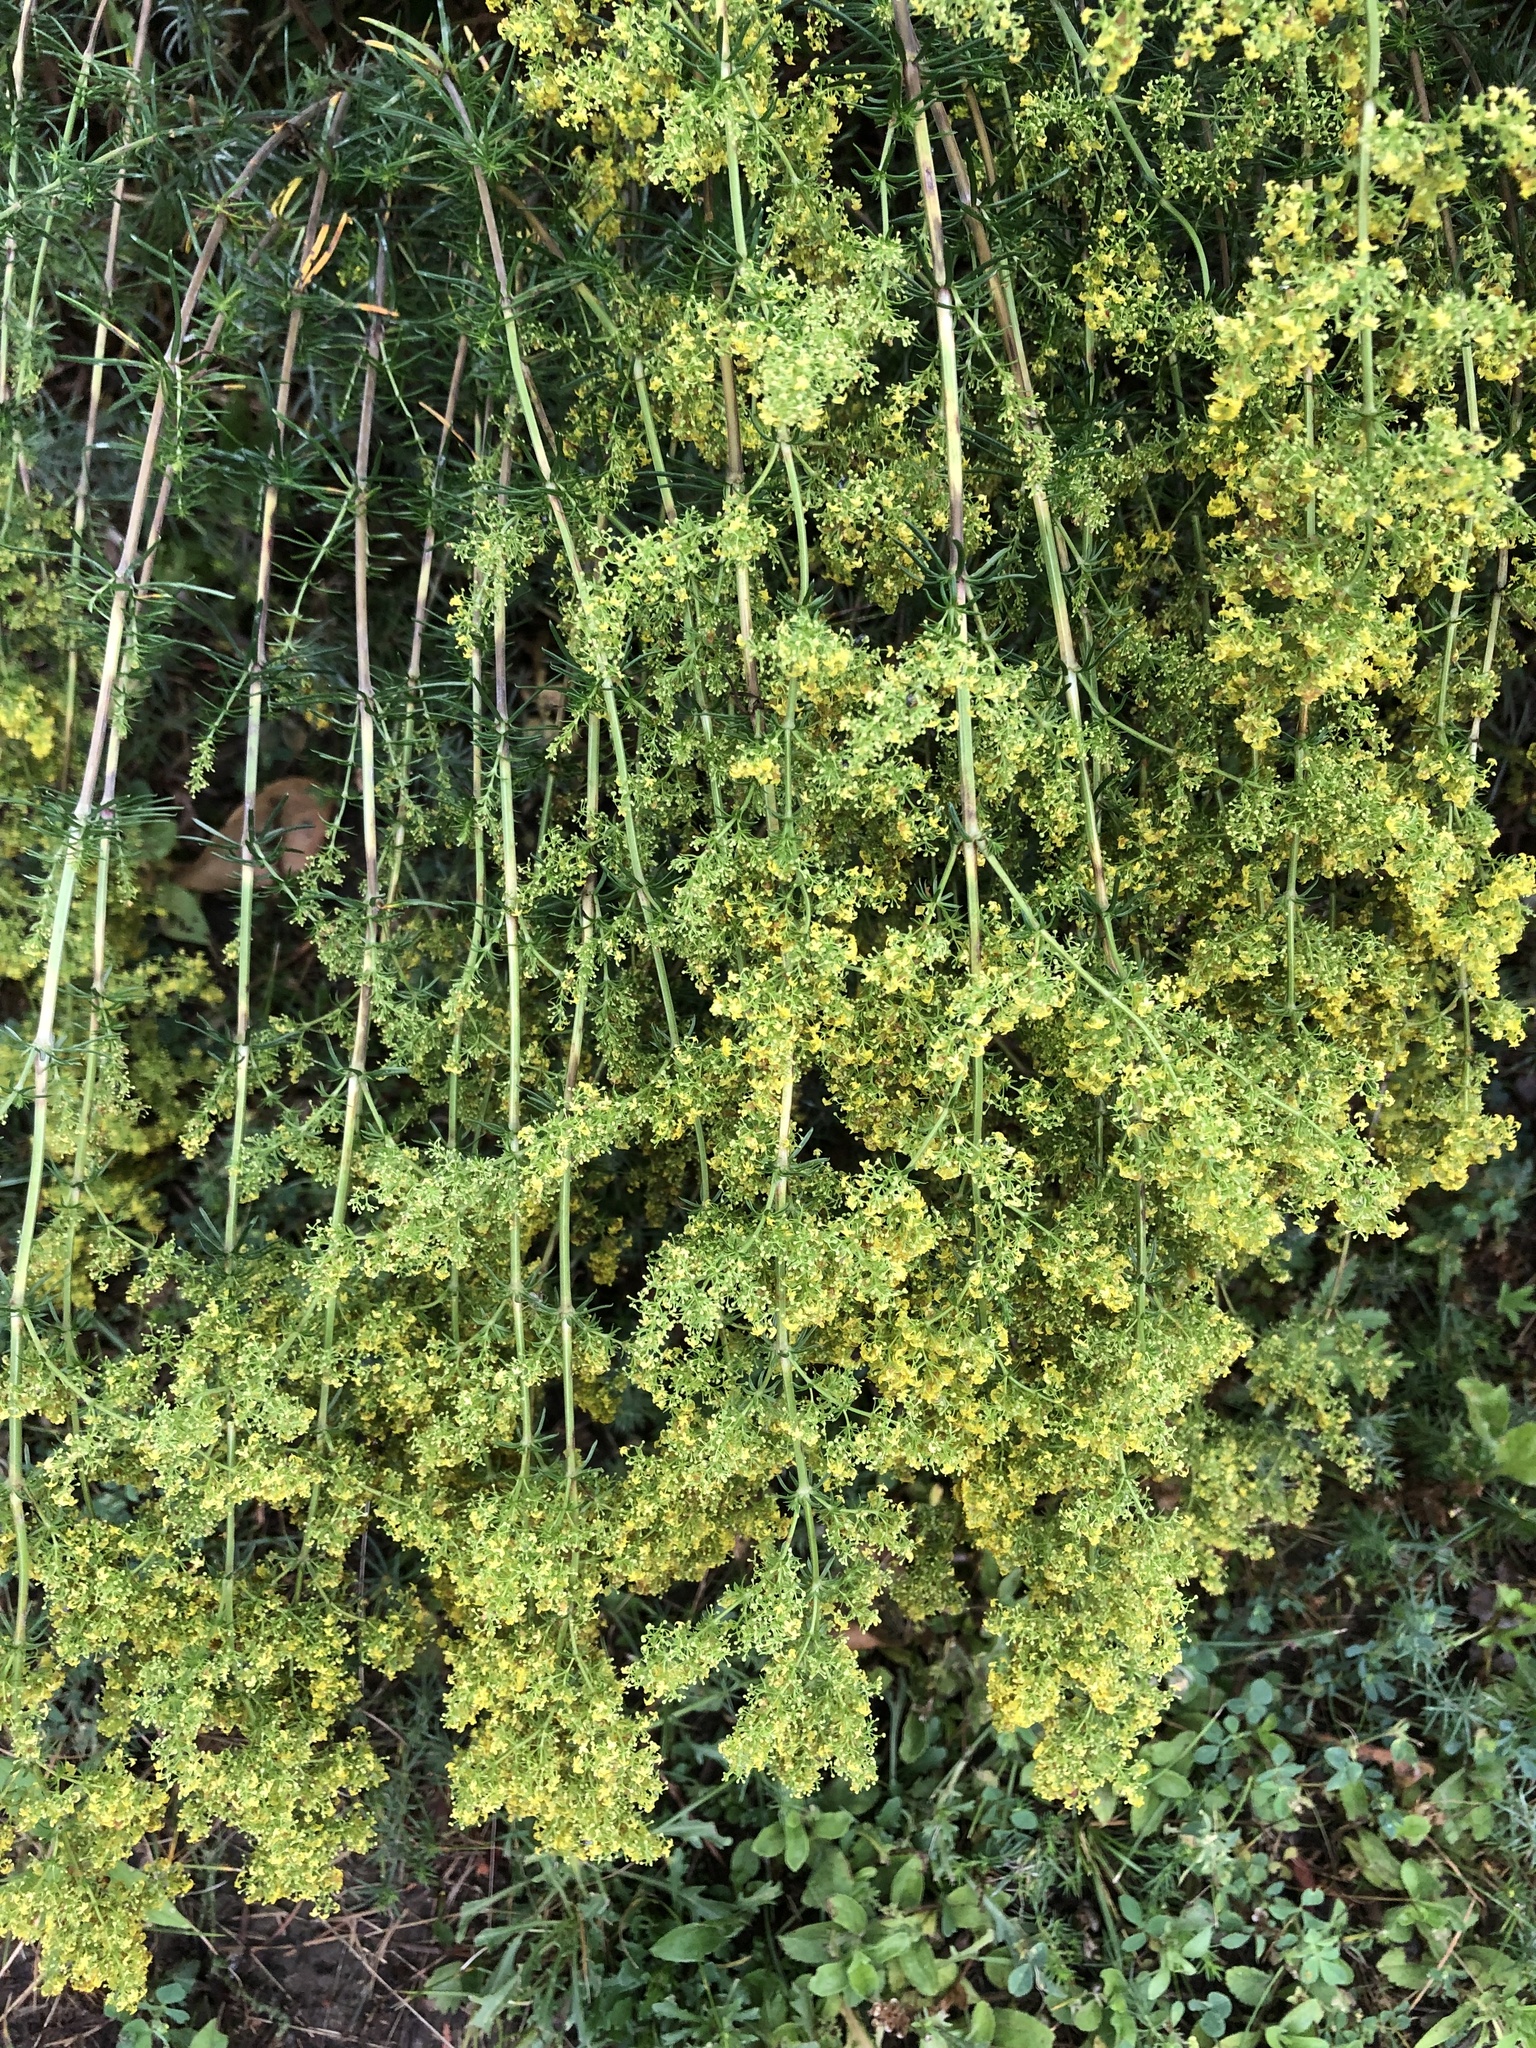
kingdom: Plantae
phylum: Tracheophyta
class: Magnoliopsida
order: Gentianales
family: Rubiaceae
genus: Galium
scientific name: Galium verum
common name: Lady's bedstraw
